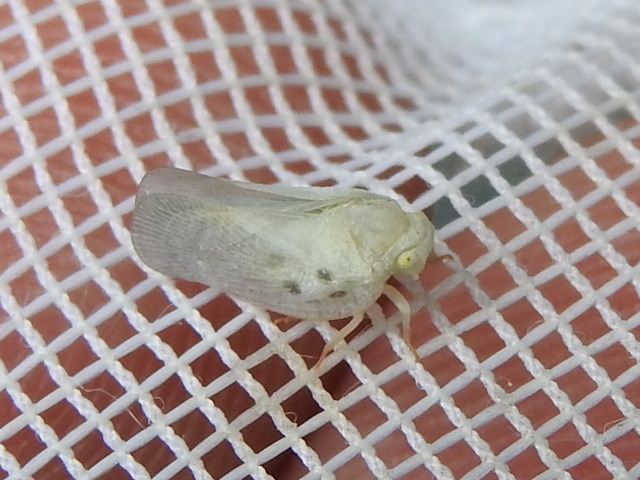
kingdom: Animalia
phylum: Arthropoda
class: Insecta
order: Hemiptera
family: Flatidae
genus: Metcalfa
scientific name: Metcalfa pruinosa
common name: Citrus flatid planthopper
